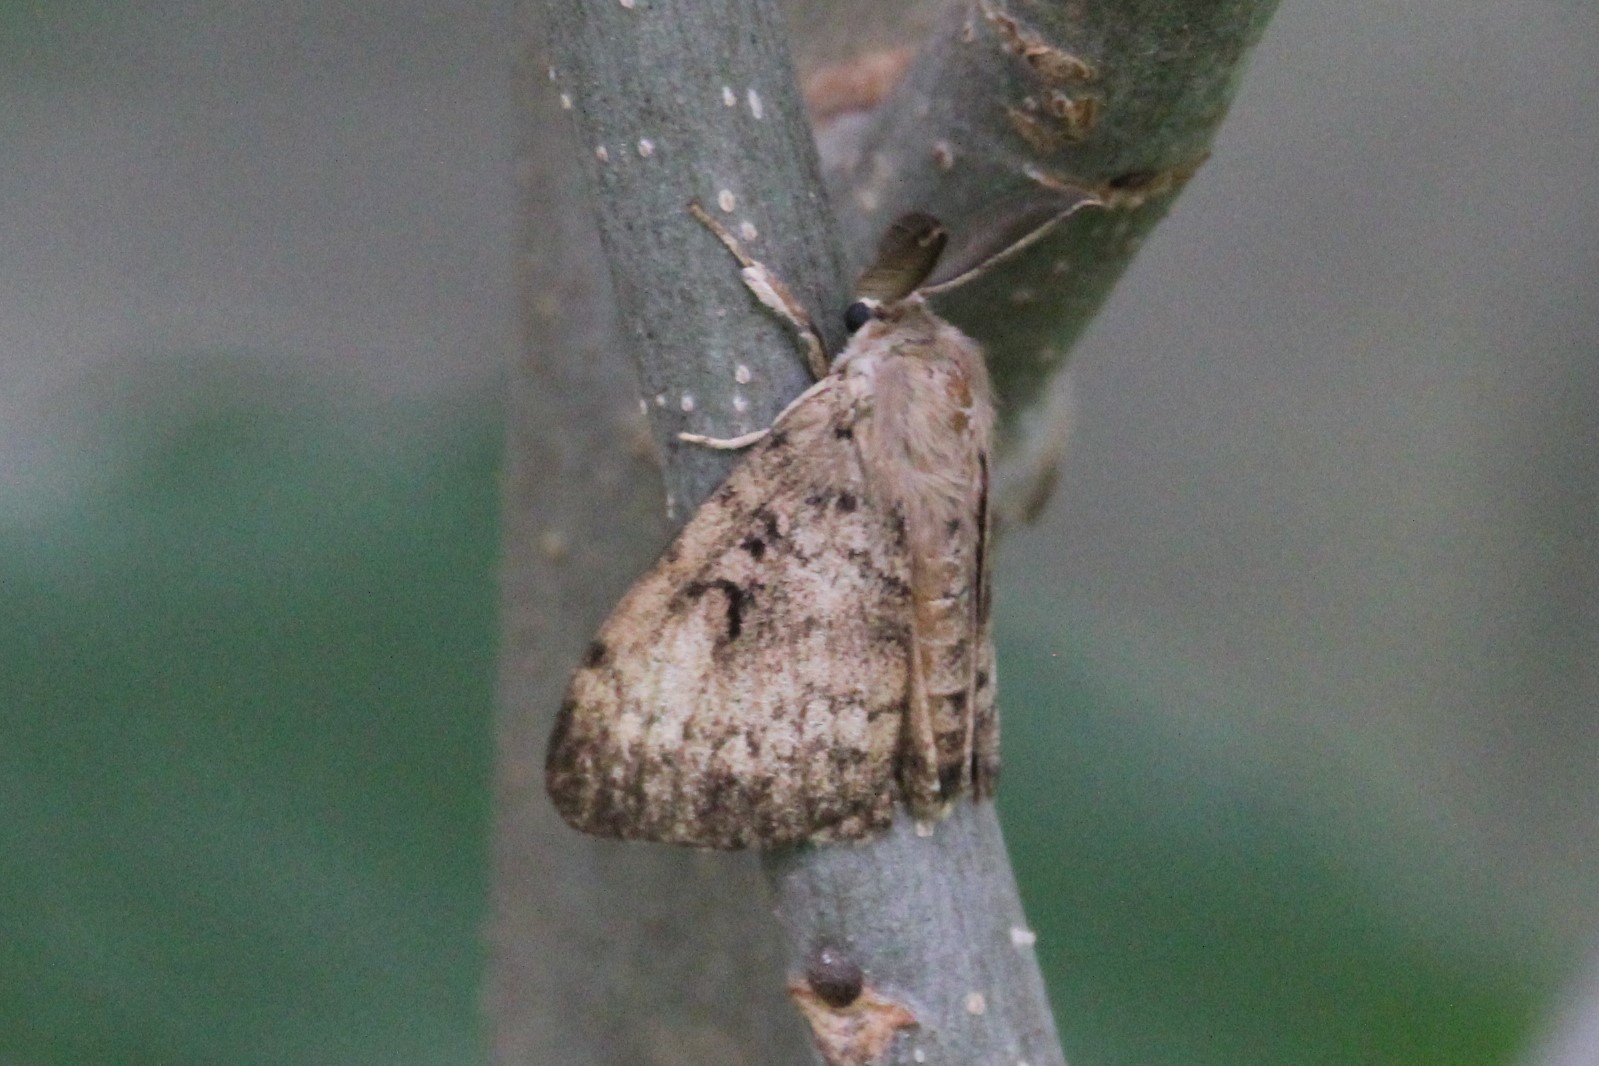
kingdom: Animalia
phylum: Arthropoda
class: Insecta
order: Lepidoptera
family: Erebidae
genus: Lymantria
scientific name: Lymantria dispar
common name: Gypsy moth
